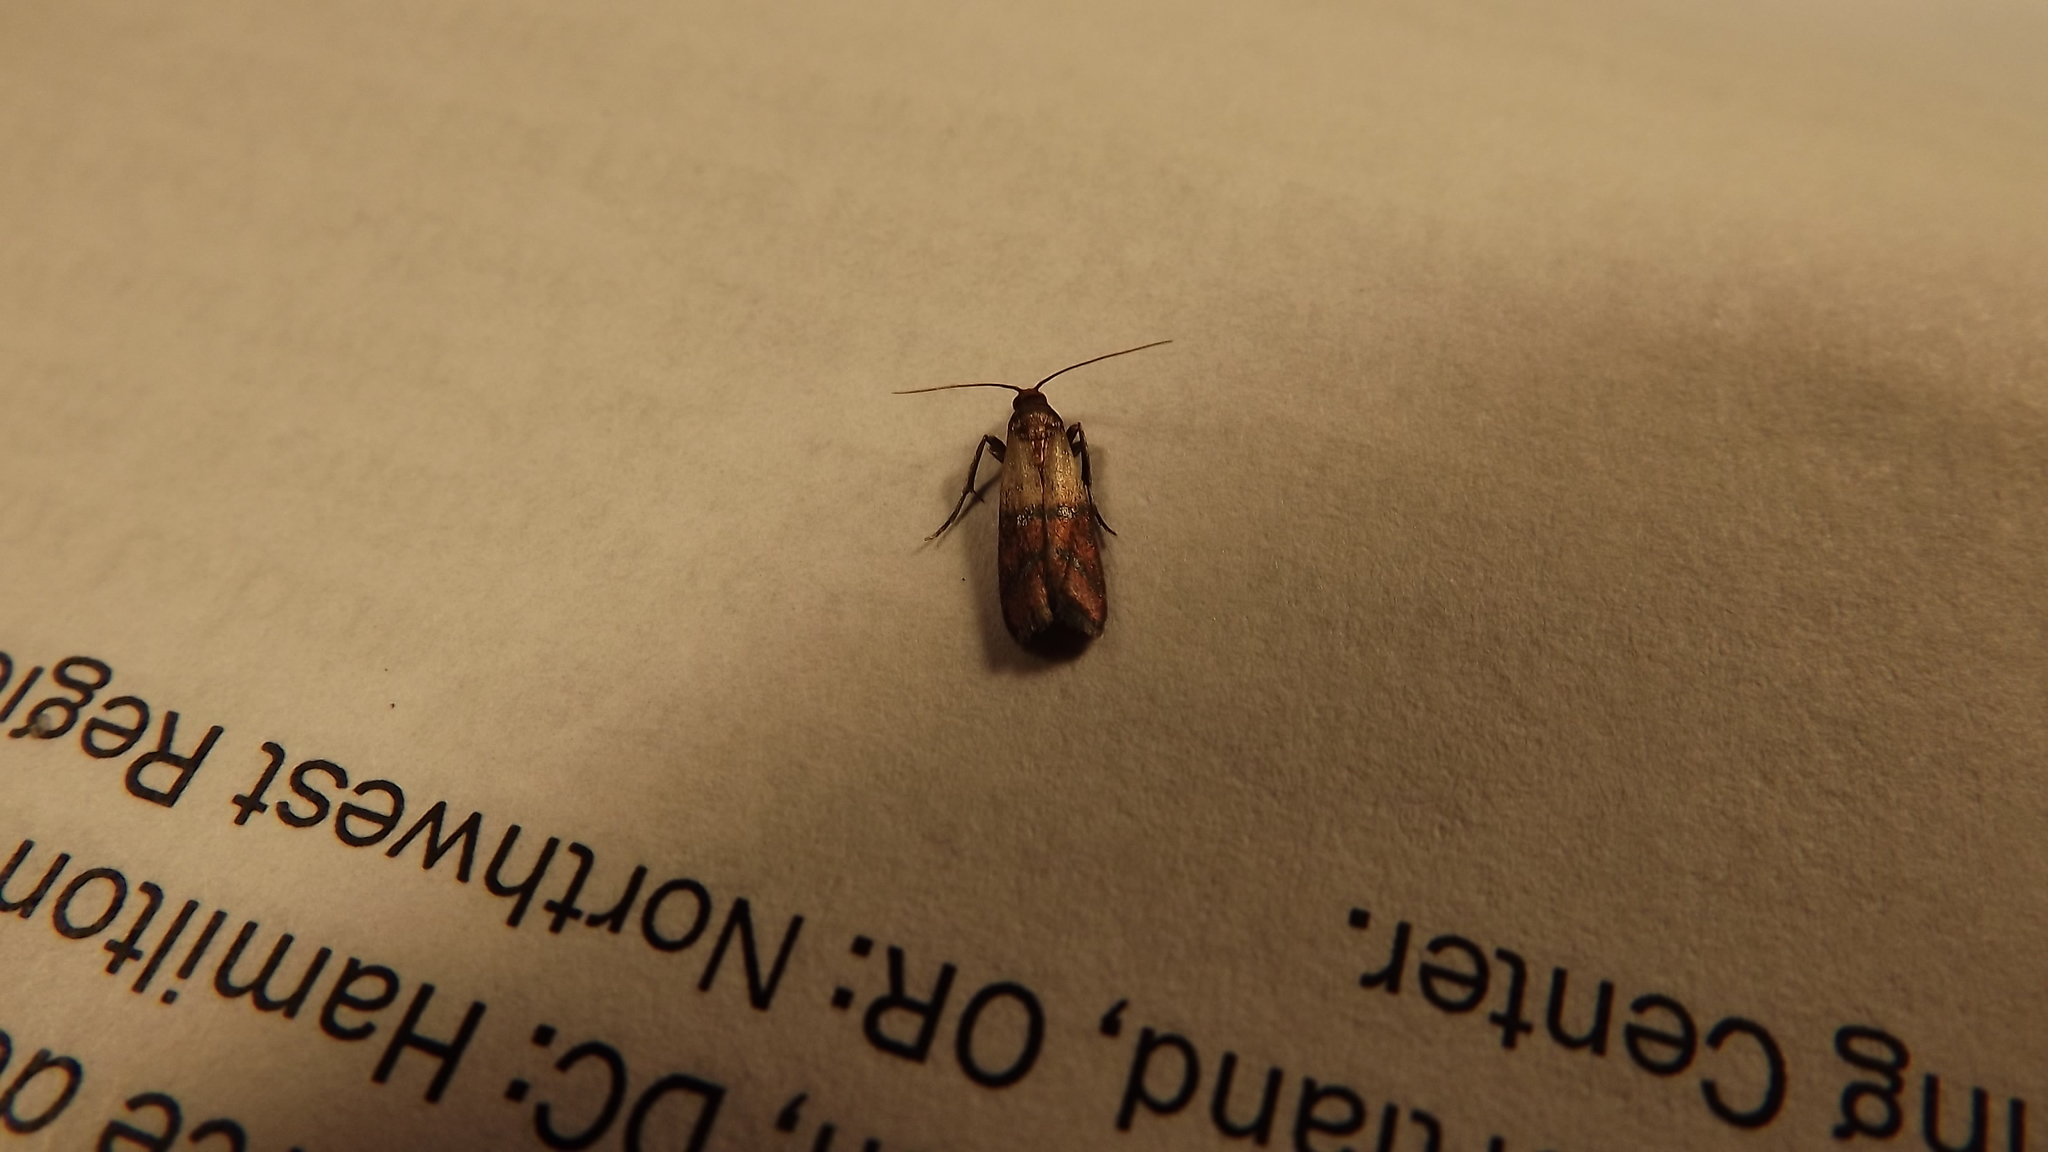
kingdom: Animalia
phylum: Arthropoda
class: Insecta
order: Lepidoptera
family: Pyralidae
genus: Plodia
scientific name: Plodia interpunctella
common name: Indian meal moth
